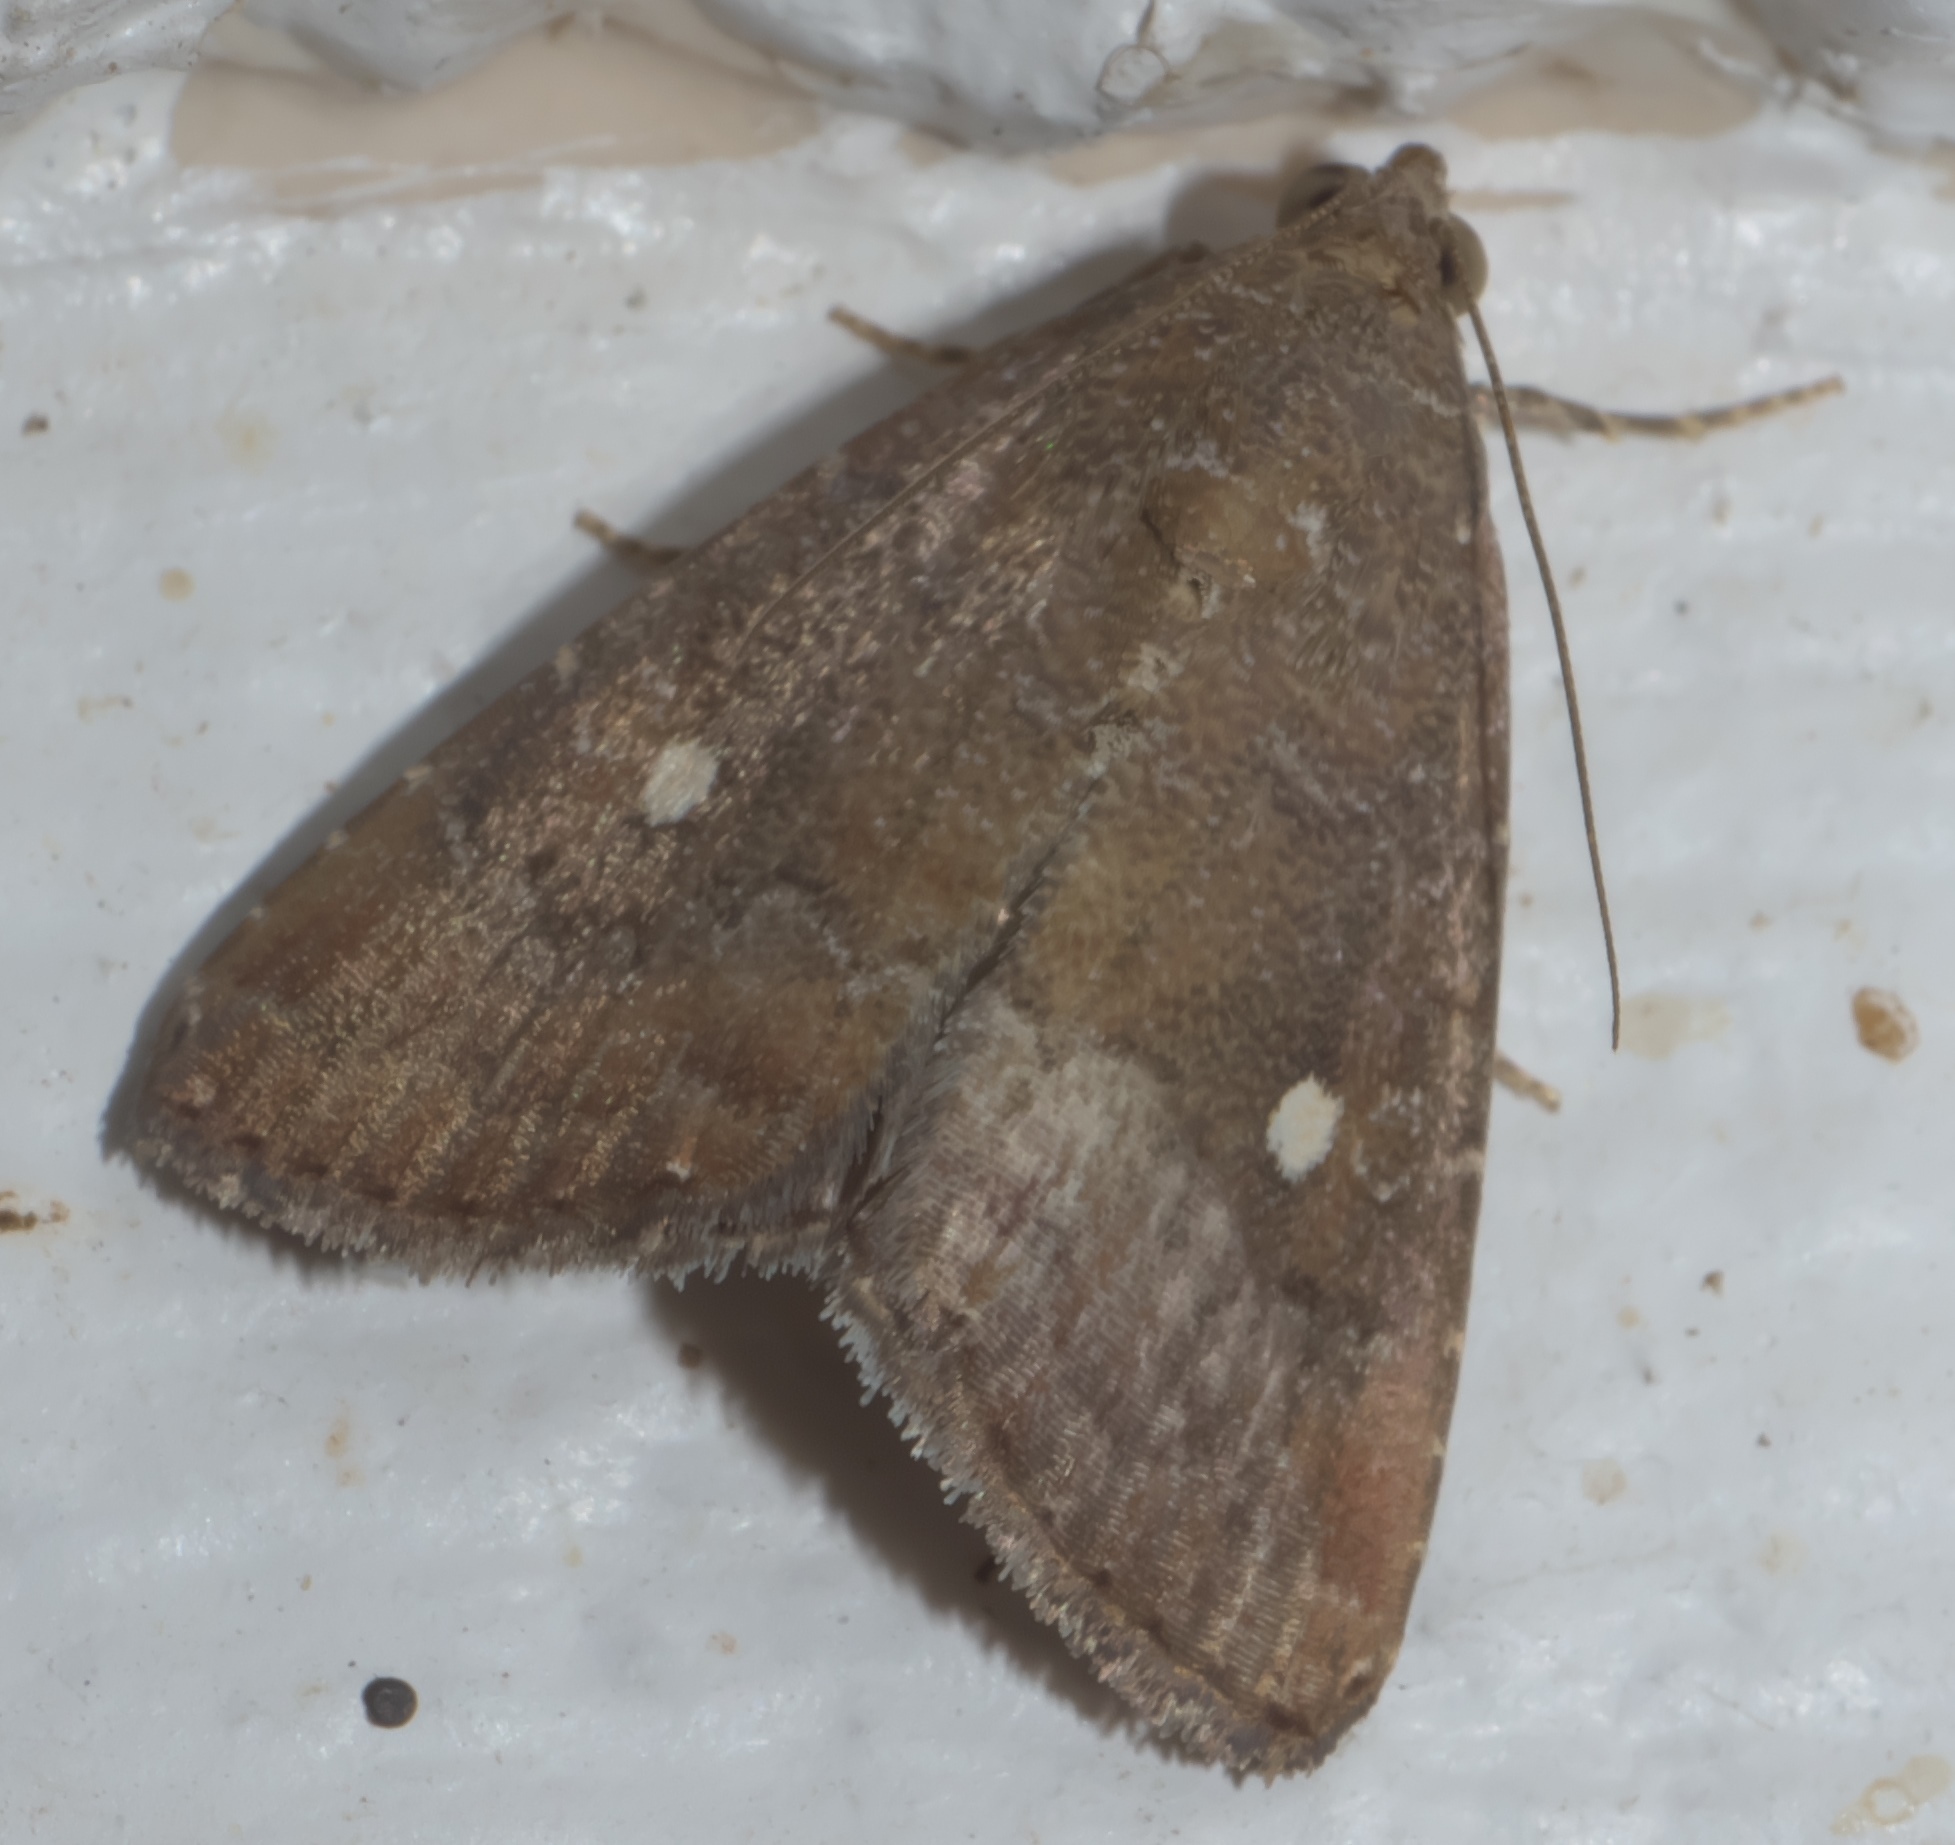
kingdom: Animalia
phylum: Arthropoda
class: Insecta
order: Lepidoptera
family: Noctuidae
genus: Amyna
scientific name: Amyna stricta
